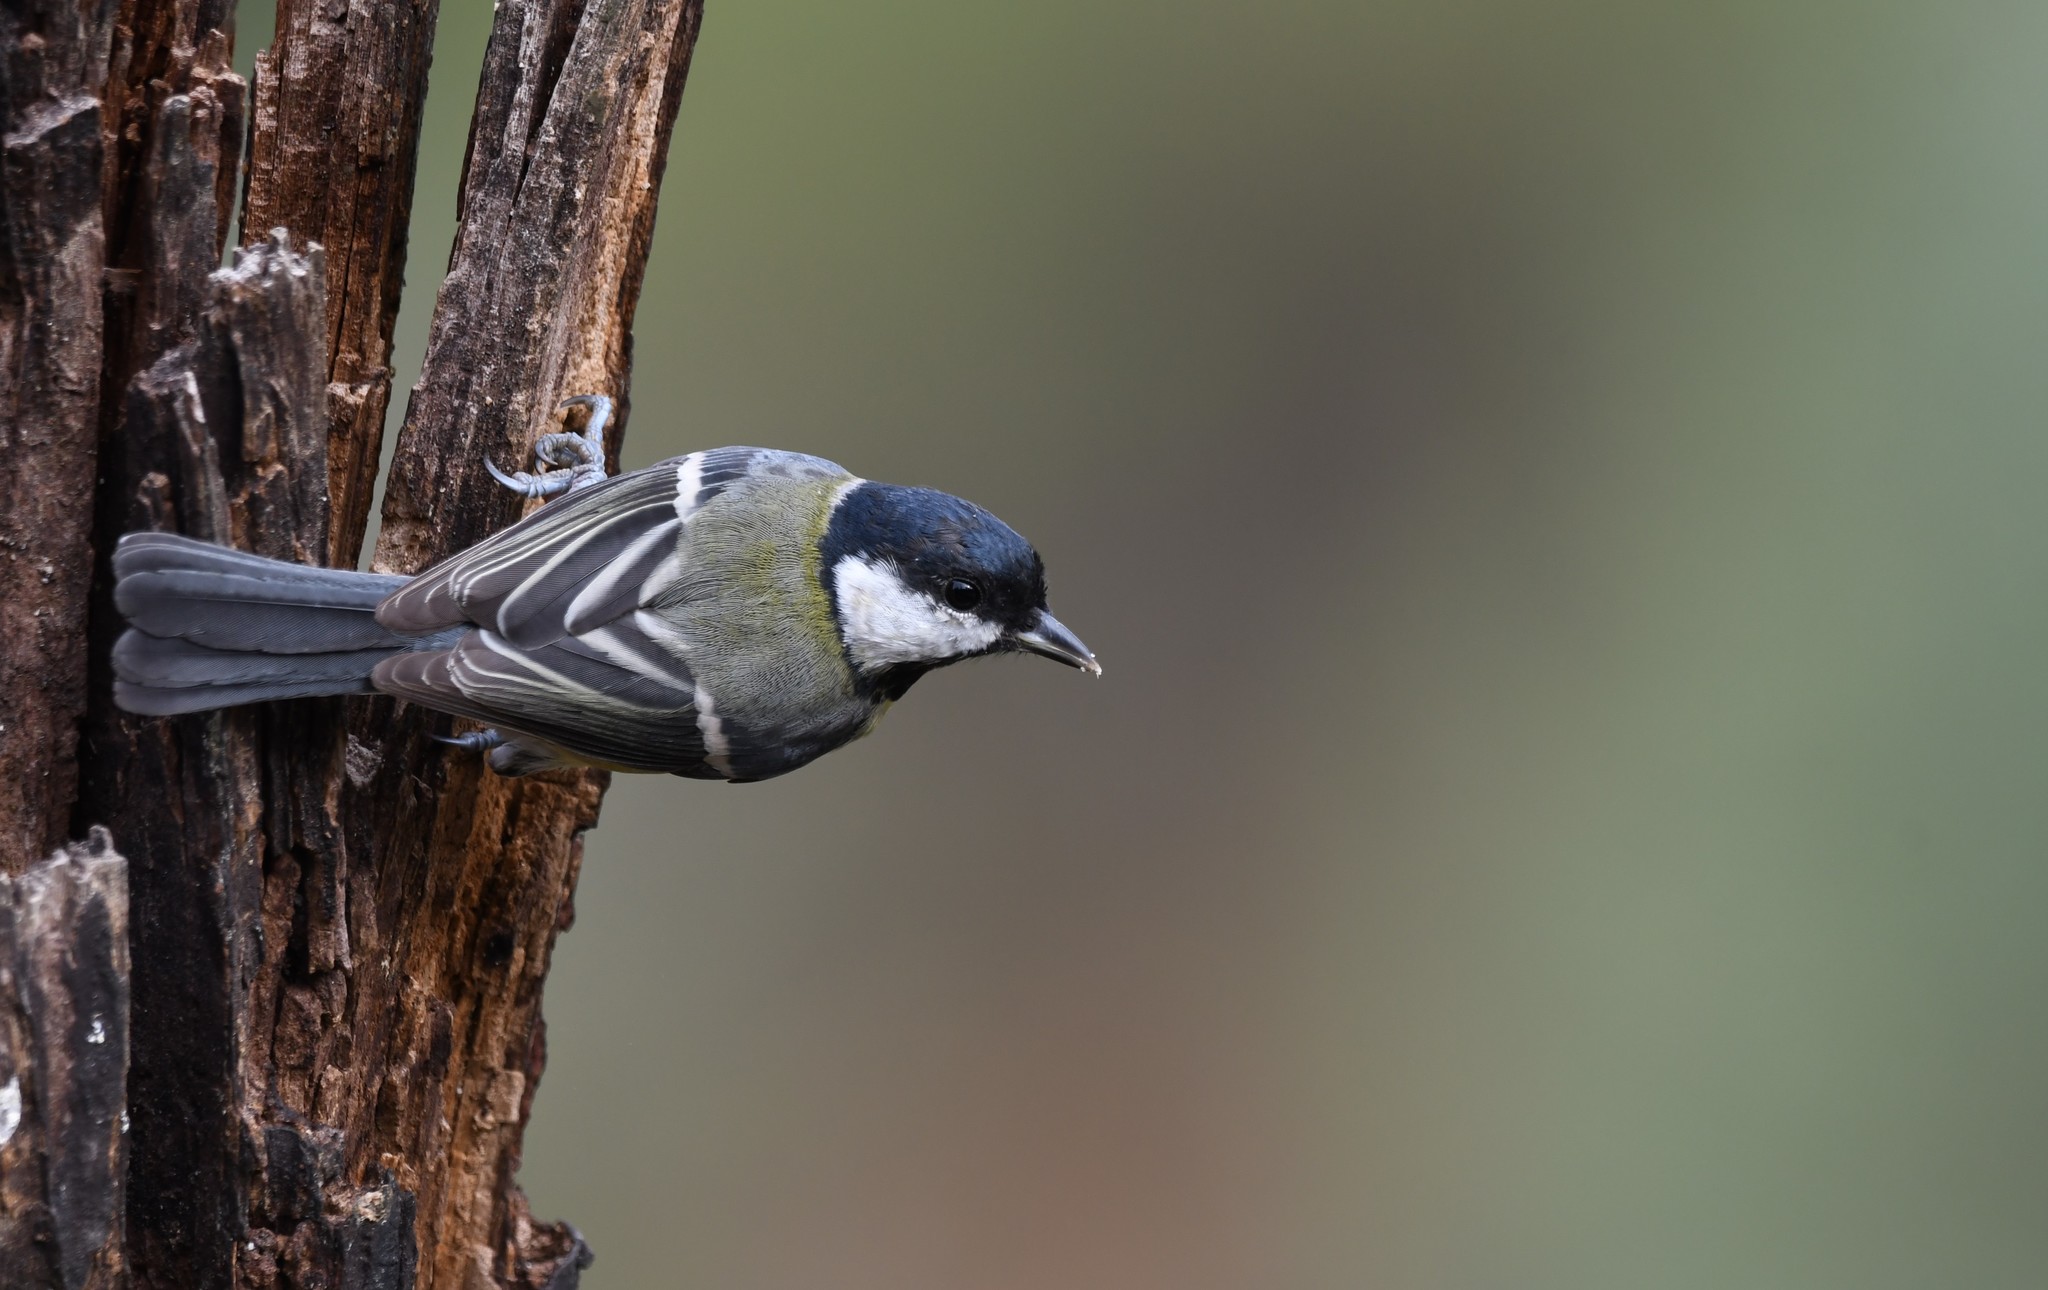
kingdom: Animalia
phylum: Chordata
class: Aves
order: Passeriformes
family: Paridae
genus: Parus
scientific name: Parus major
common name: Great tit
